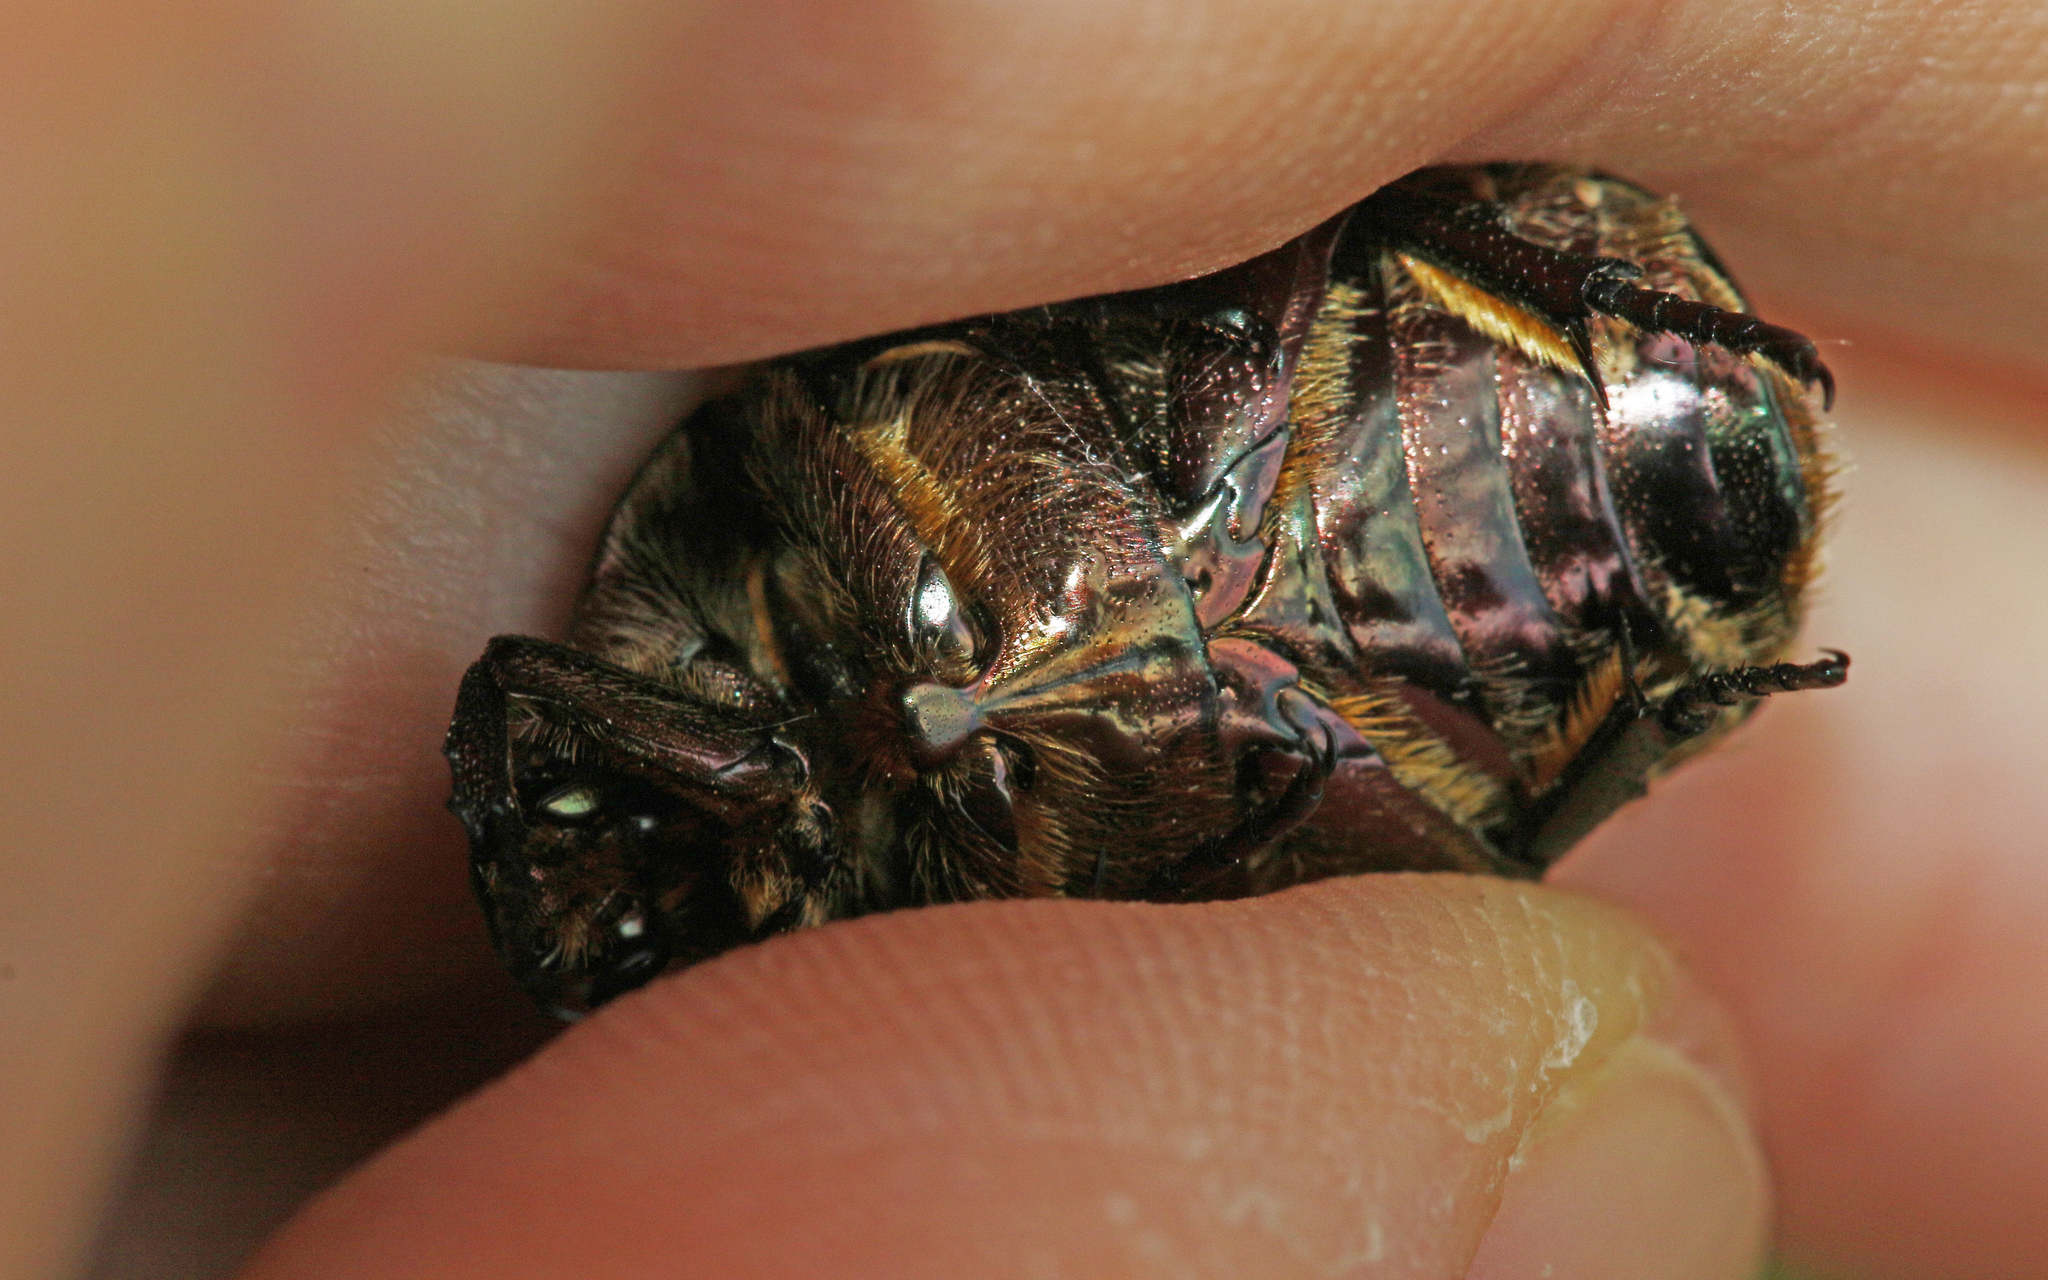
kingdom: Animalia
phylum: Arthropoda
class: Insecta
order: Coleoptera
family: Scarabaeidae
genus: Protaetia
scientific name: Protaetia cuprea
